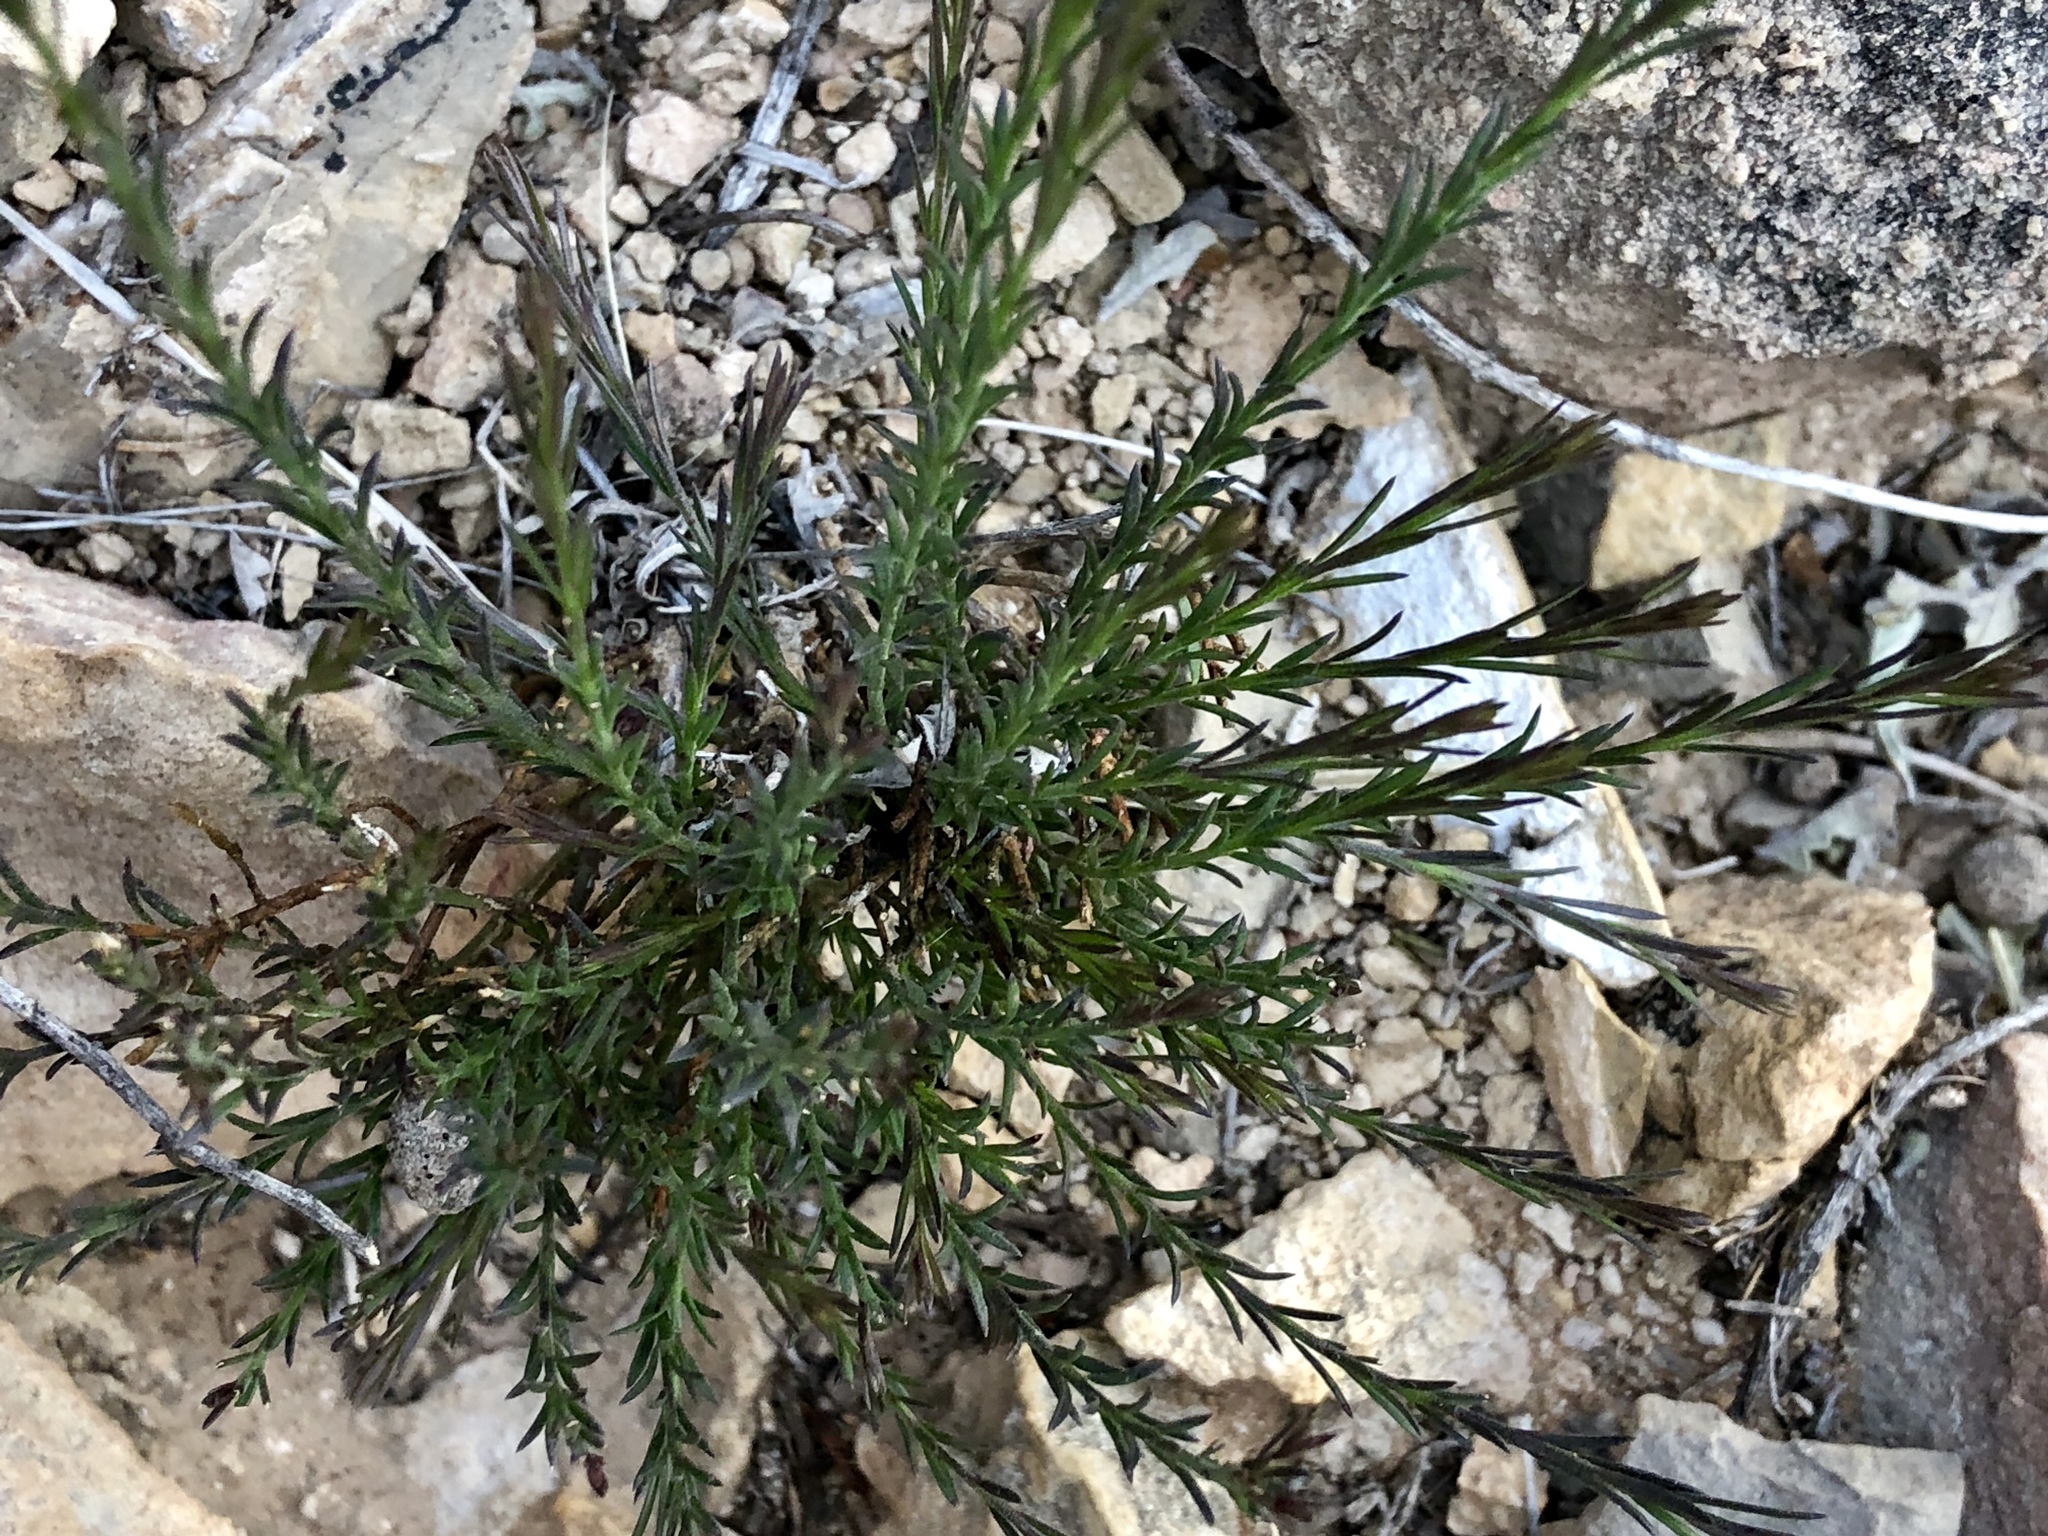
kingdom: Plantae
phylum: Tracheophyta
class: Magnoliopsida
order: Fabales
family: Polygalaceae
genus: Polygala
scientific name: Polygala scoparioides
